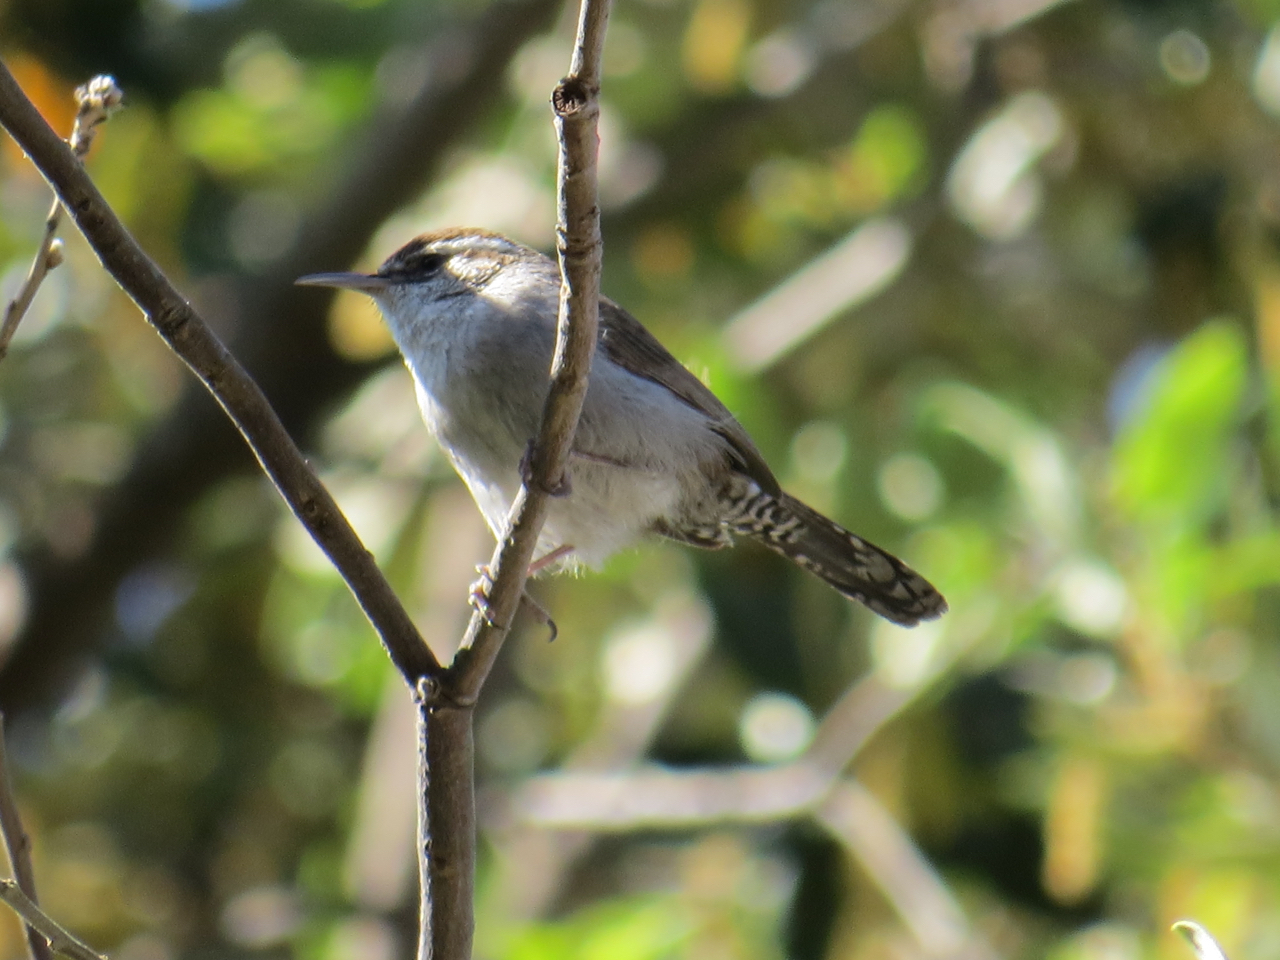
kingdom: Animalia
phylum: Chordata
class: Aves
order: Passeriformes
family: Troglodytidae
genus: Thryomanes
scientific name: Thryomanes bewickii
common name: Bewick's wren
